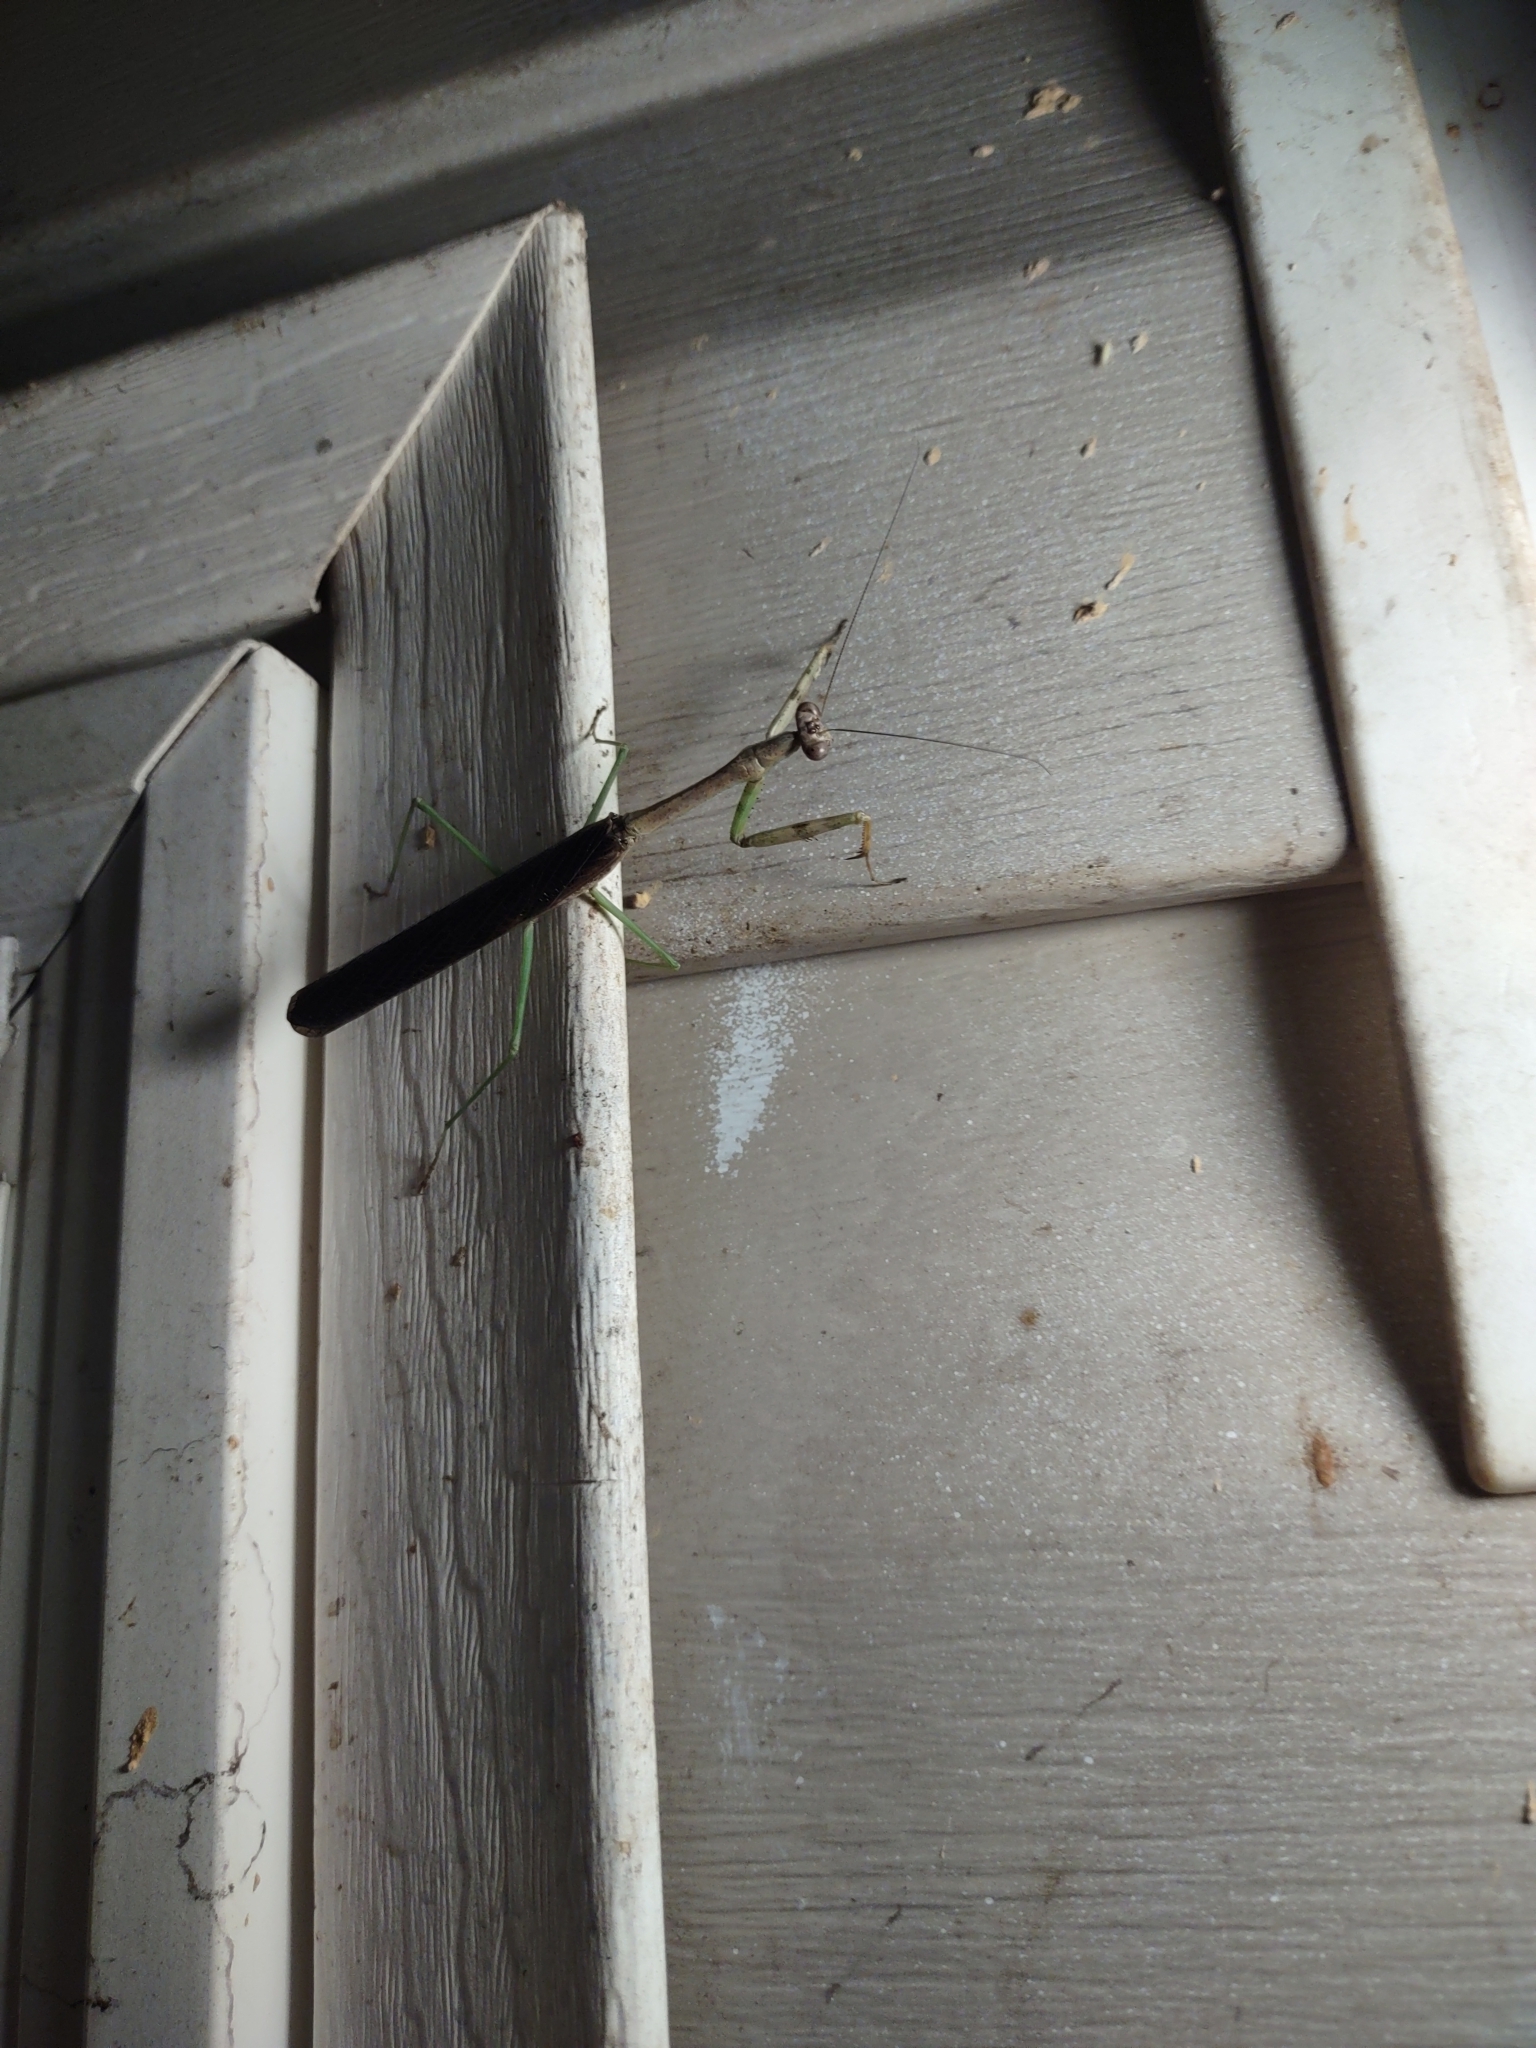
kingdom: Animalia
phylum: Arthropoda
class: Insecta
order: Mantodea
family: Mantidae
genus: Stagmomantis
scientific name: Stagmomantis carolina
